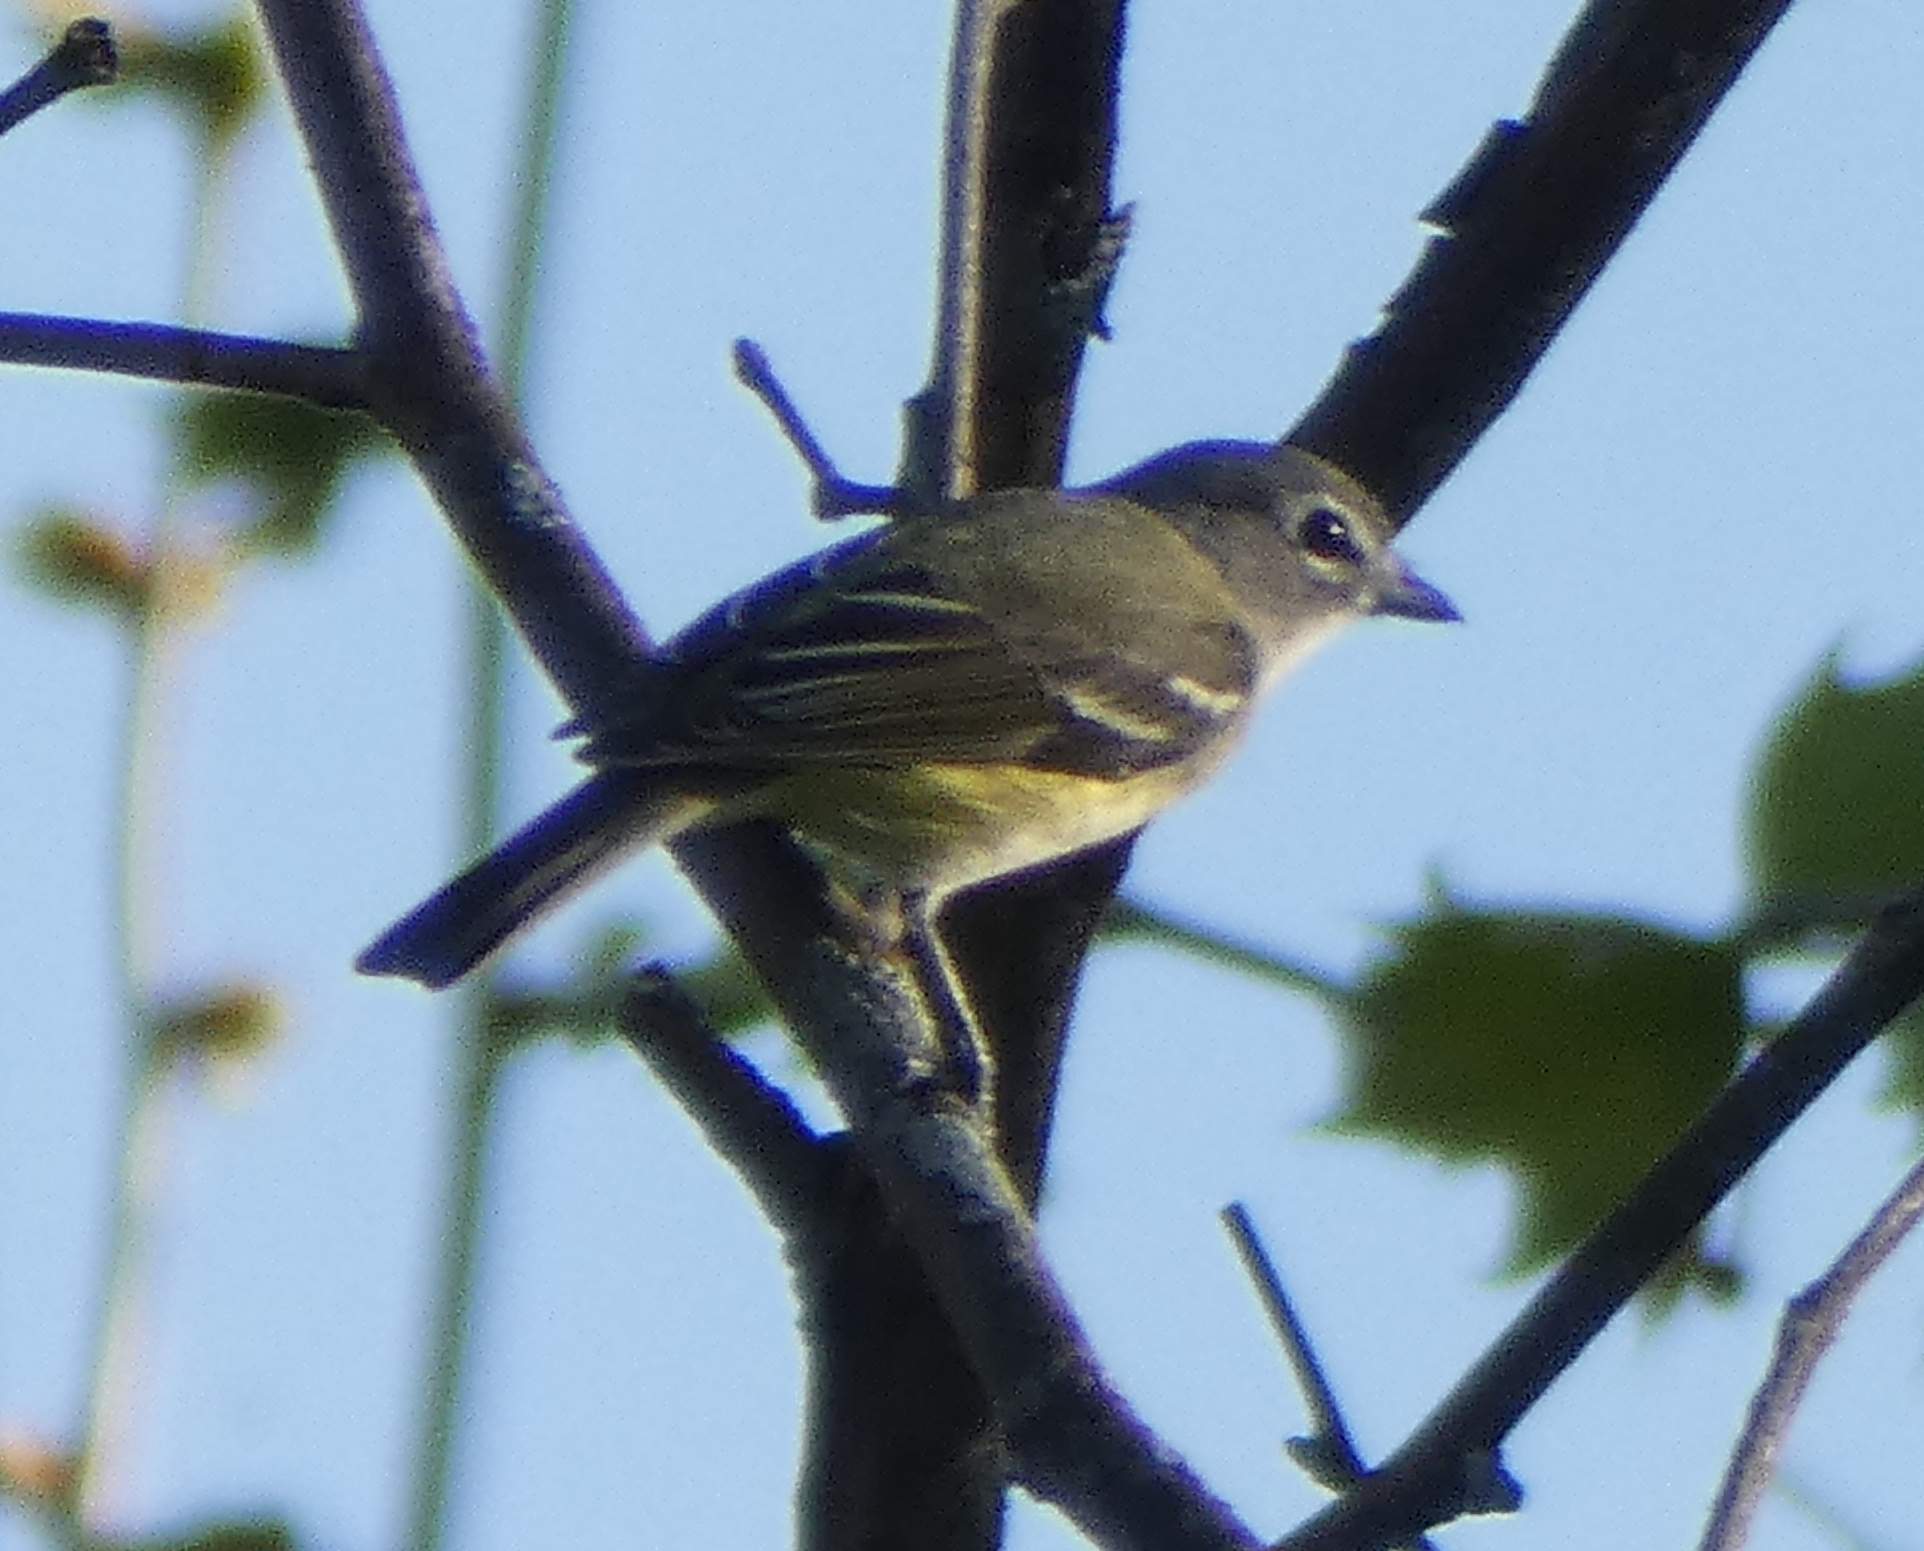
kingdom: Animalia
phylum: Chordata
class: Aves
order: Passeriformes
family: Vireonidae
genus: Vireo
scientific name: Vireo solitarius
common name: Blue-headed vireo
